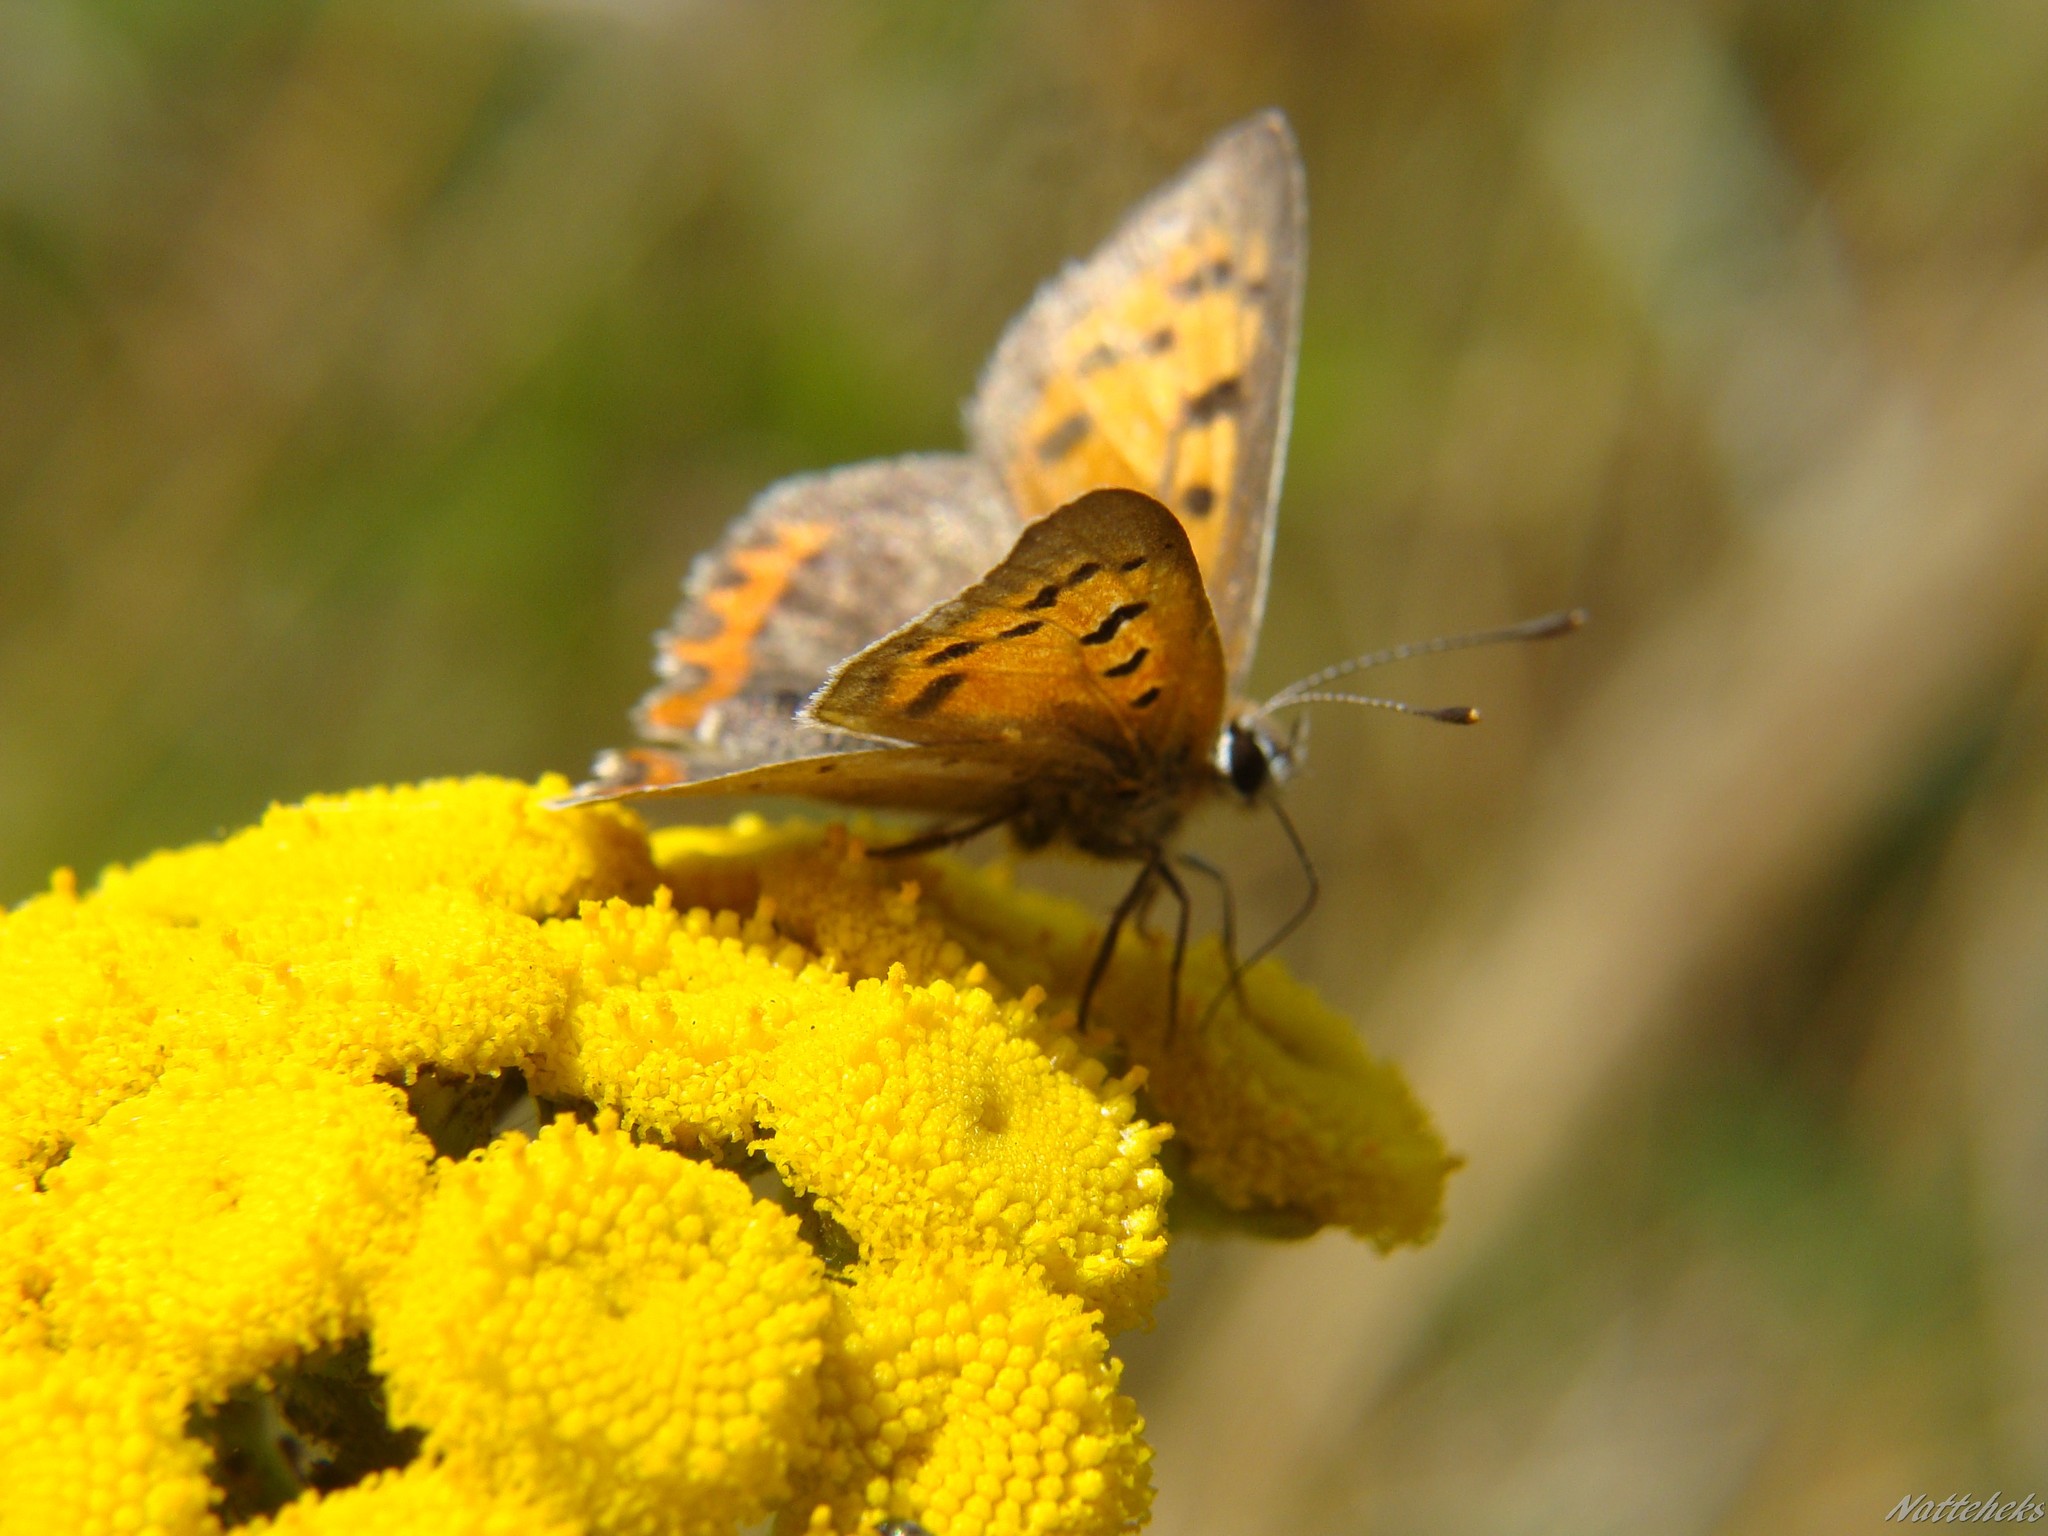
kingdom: Animalia
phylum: Arthropoda
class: Insecta
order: Lepidoptera
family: Lycaenidae
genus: Lycaena
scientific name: Lycaena phlaeas
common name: Small copper
